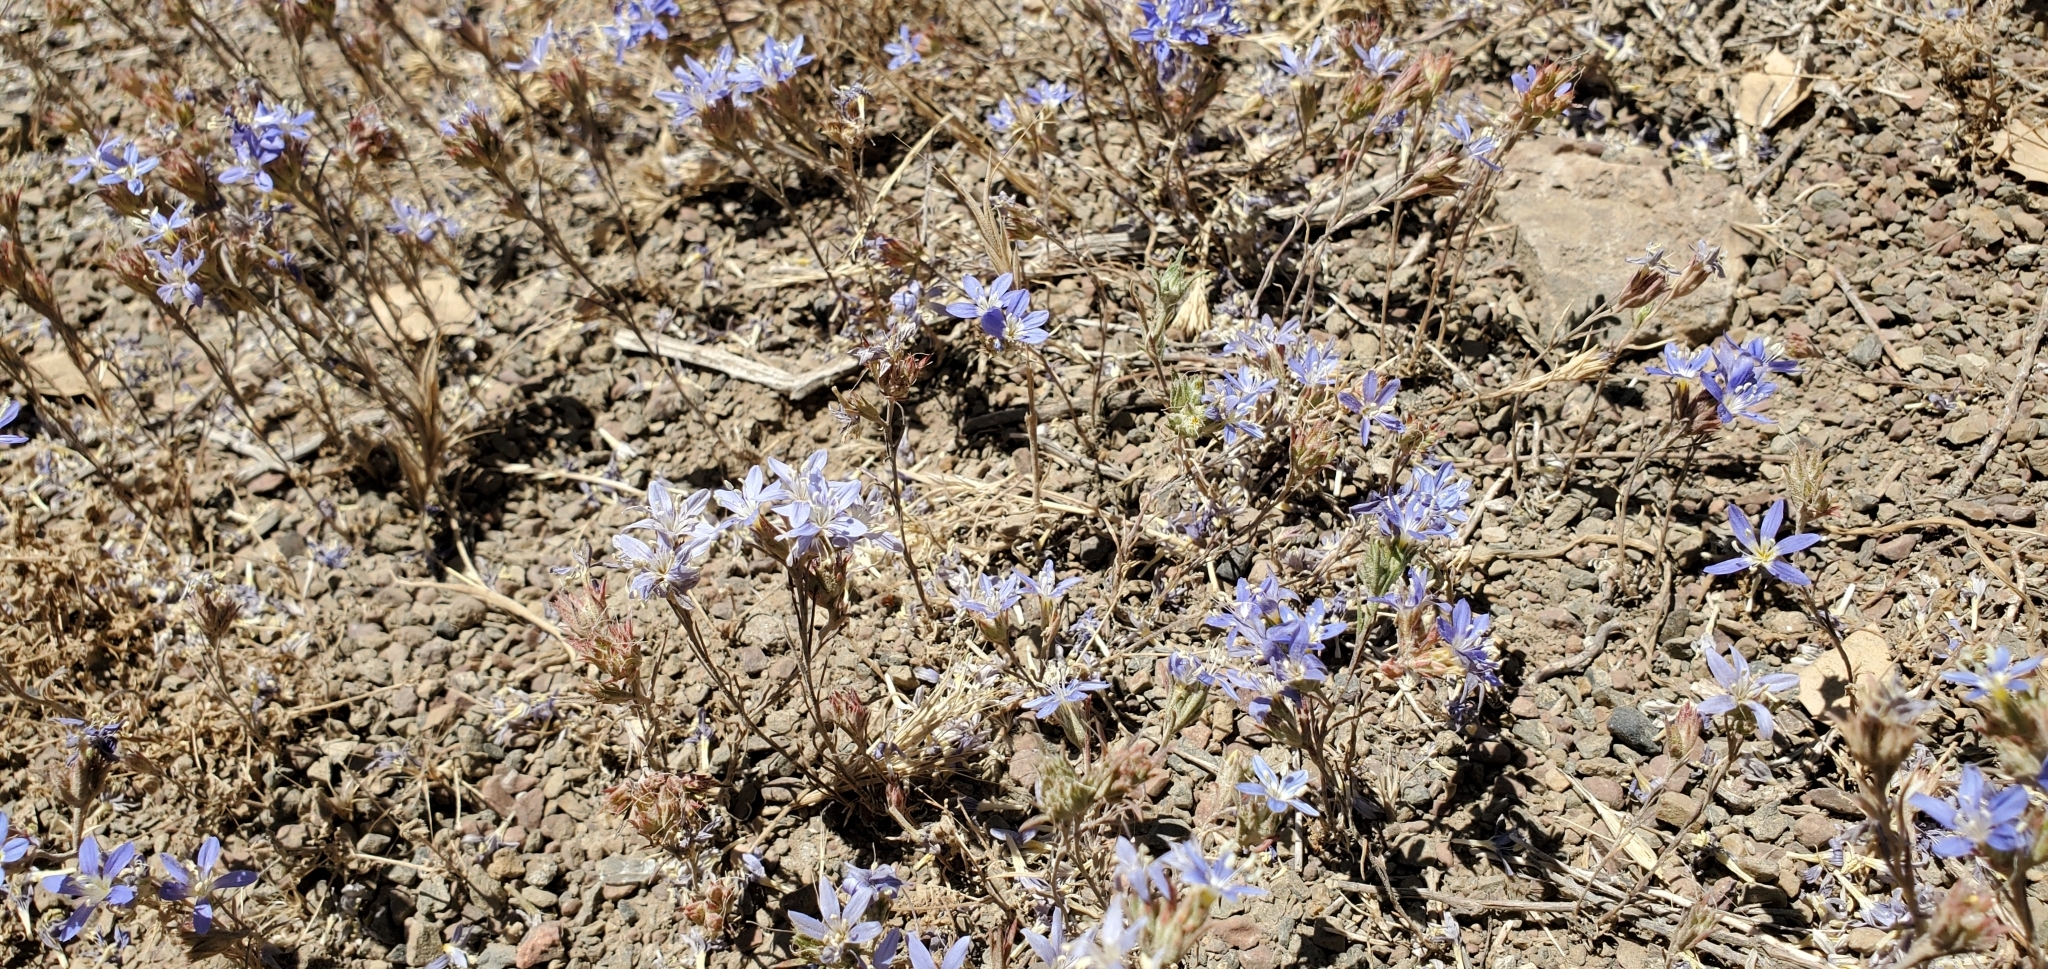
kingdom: Plantae
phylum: Tracheophyta
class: Magnoliopsida
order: Ericales
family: Polemoniaceae
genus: Eriastrum
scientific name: Eriastrum sapphirinum
